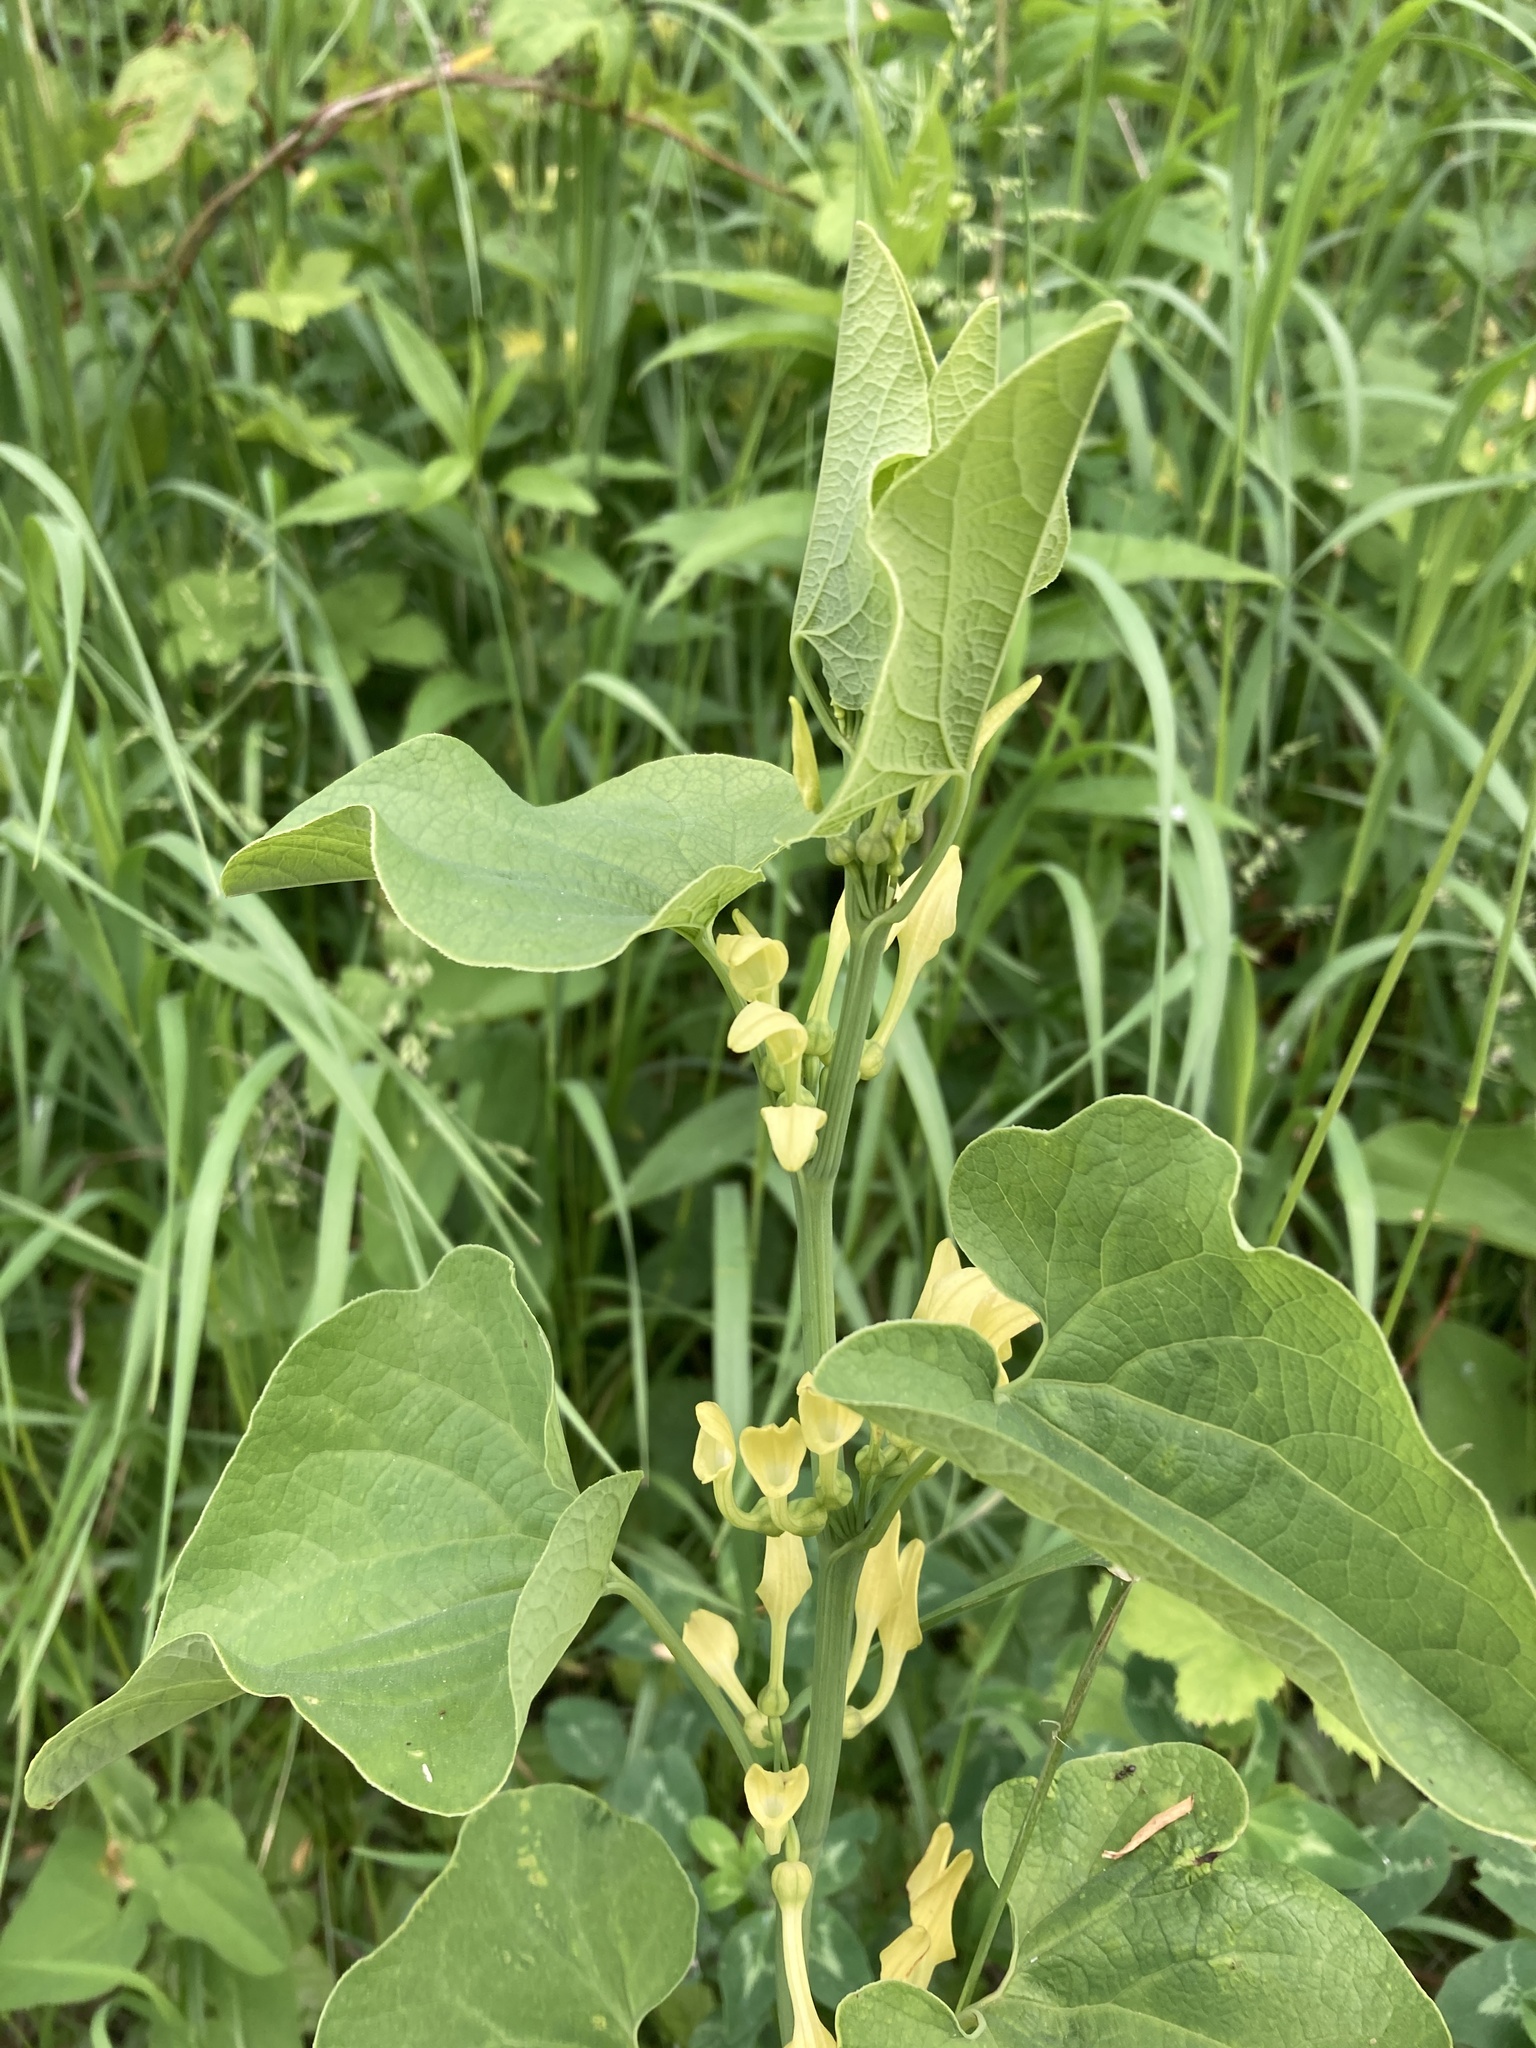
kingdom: Plantae
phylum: Tracheophyta
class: Magnoliopsida
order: Piperales
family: Aristolochiaceae
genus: Aristolochia
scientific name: Aristolochia clematitis
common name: Birthwort
